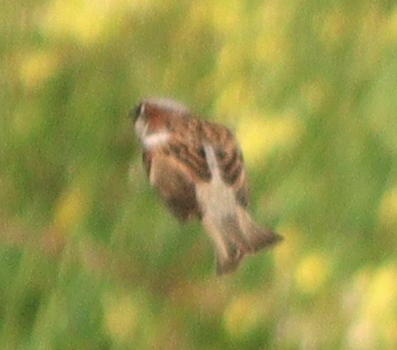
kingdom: Animalia
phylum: Chordata
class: Aves
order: Passeriformes
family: Passeridae
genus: Passer
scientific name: Passer domesticus
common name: House sparrow
